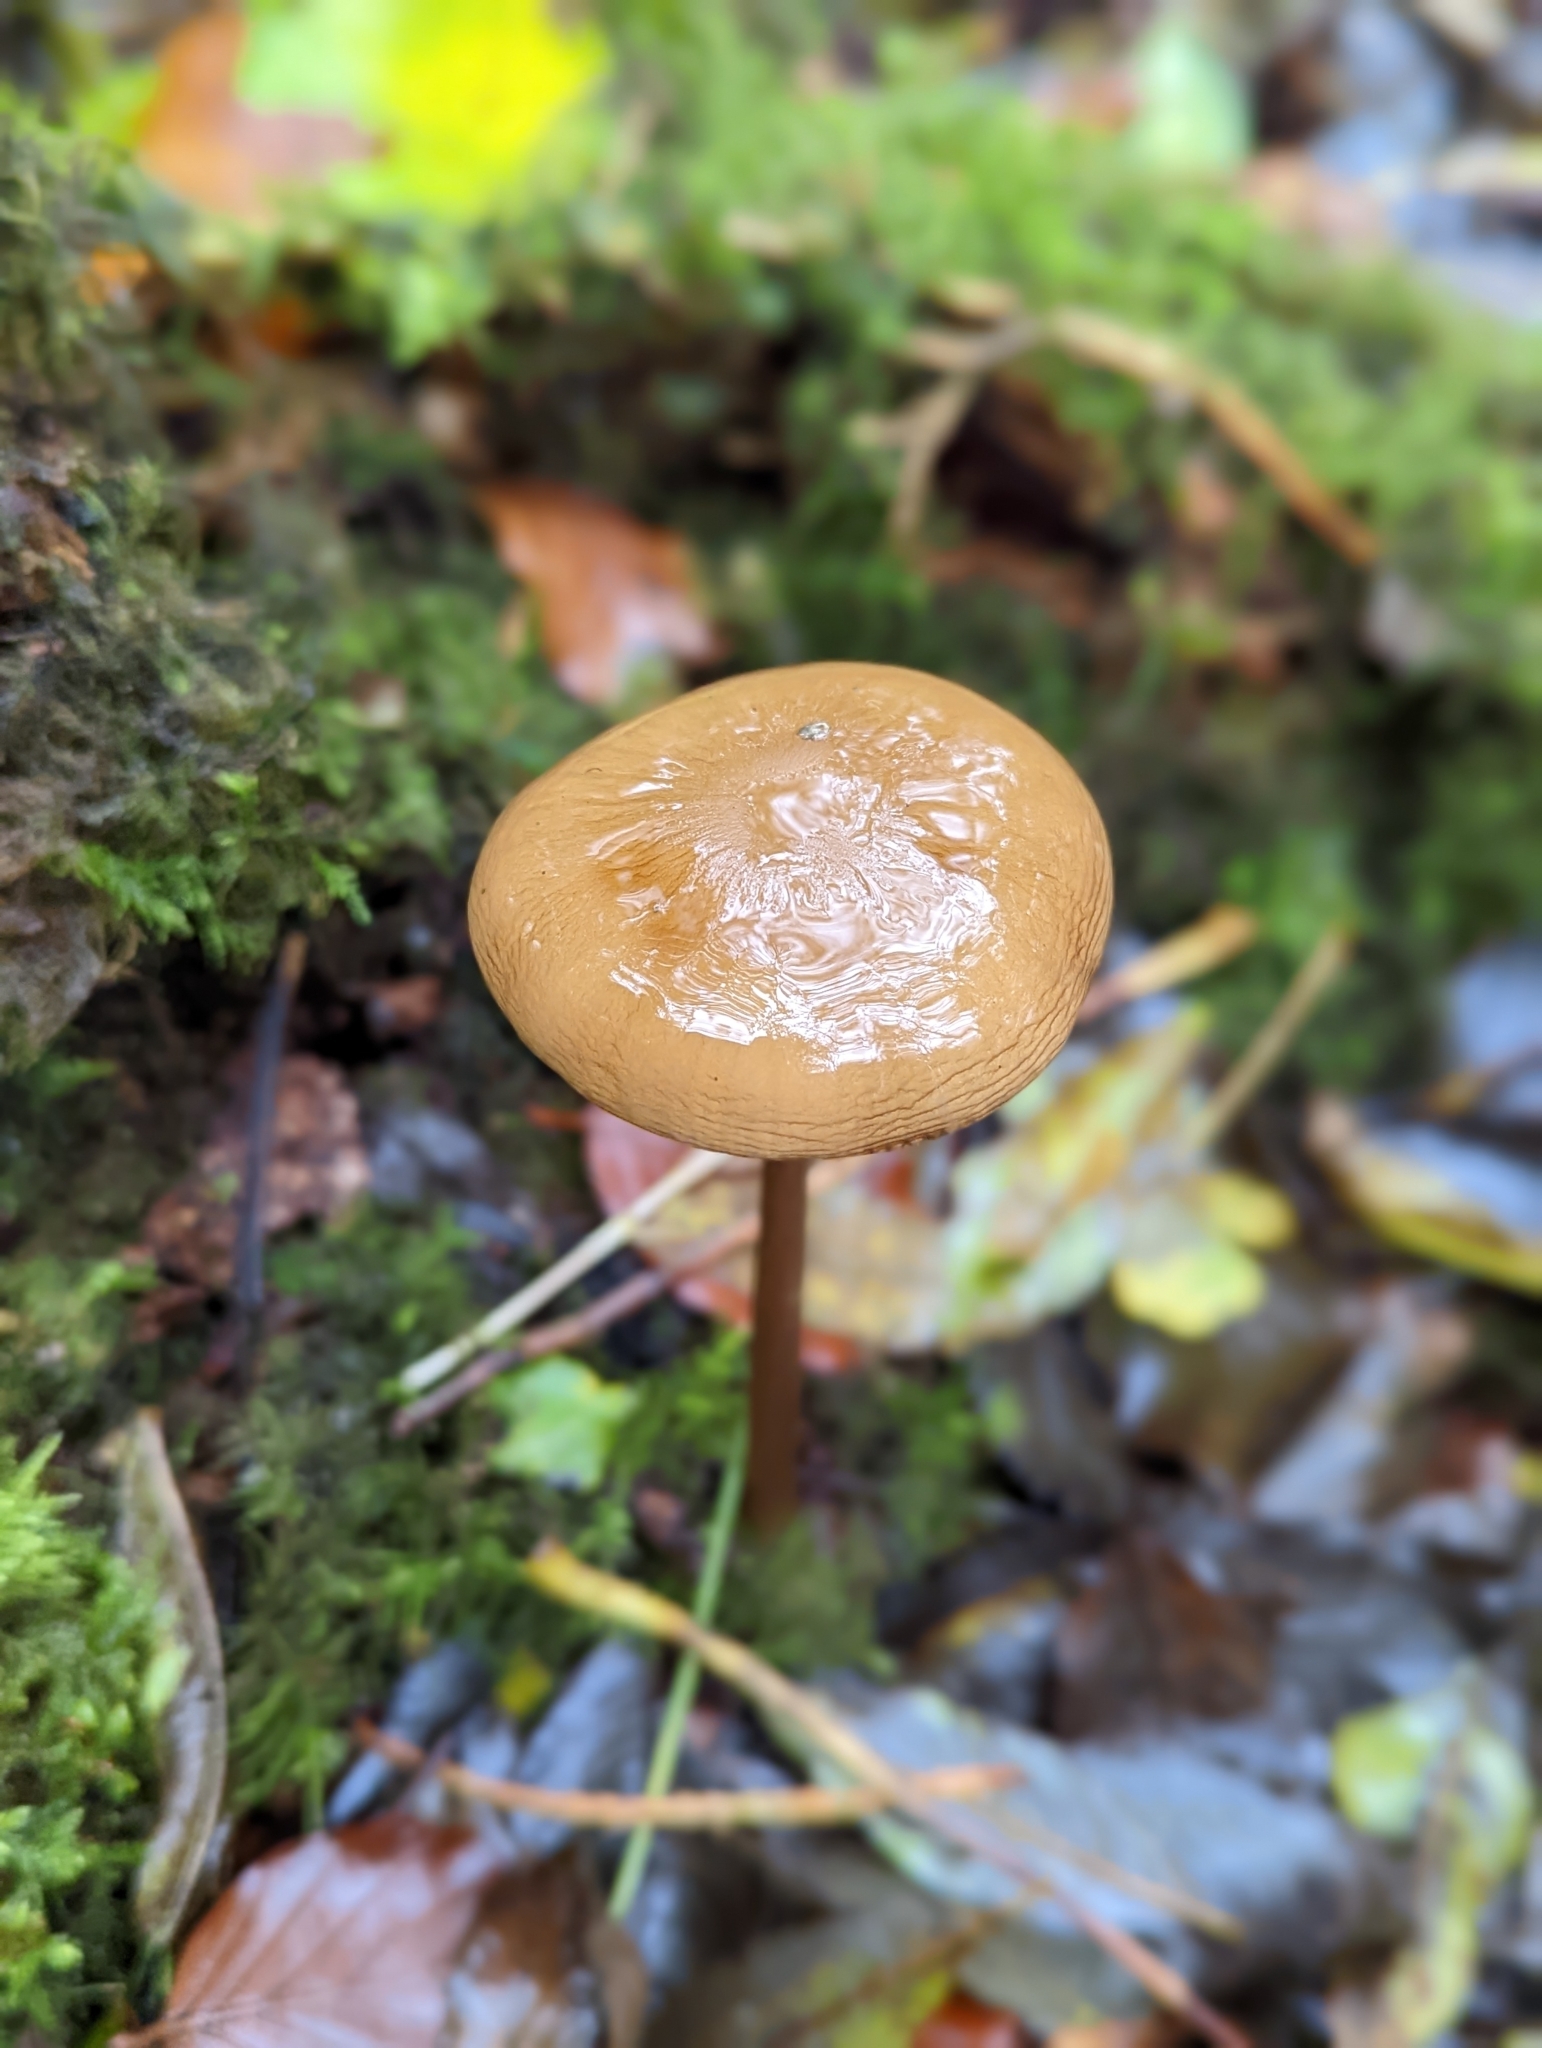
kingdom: Fungi
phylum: Basidiomycota
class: Agaricomycetes
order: Agaricales
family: Physalacriaceae
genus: Hymenopellis
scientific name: Hymenopellis radicata
